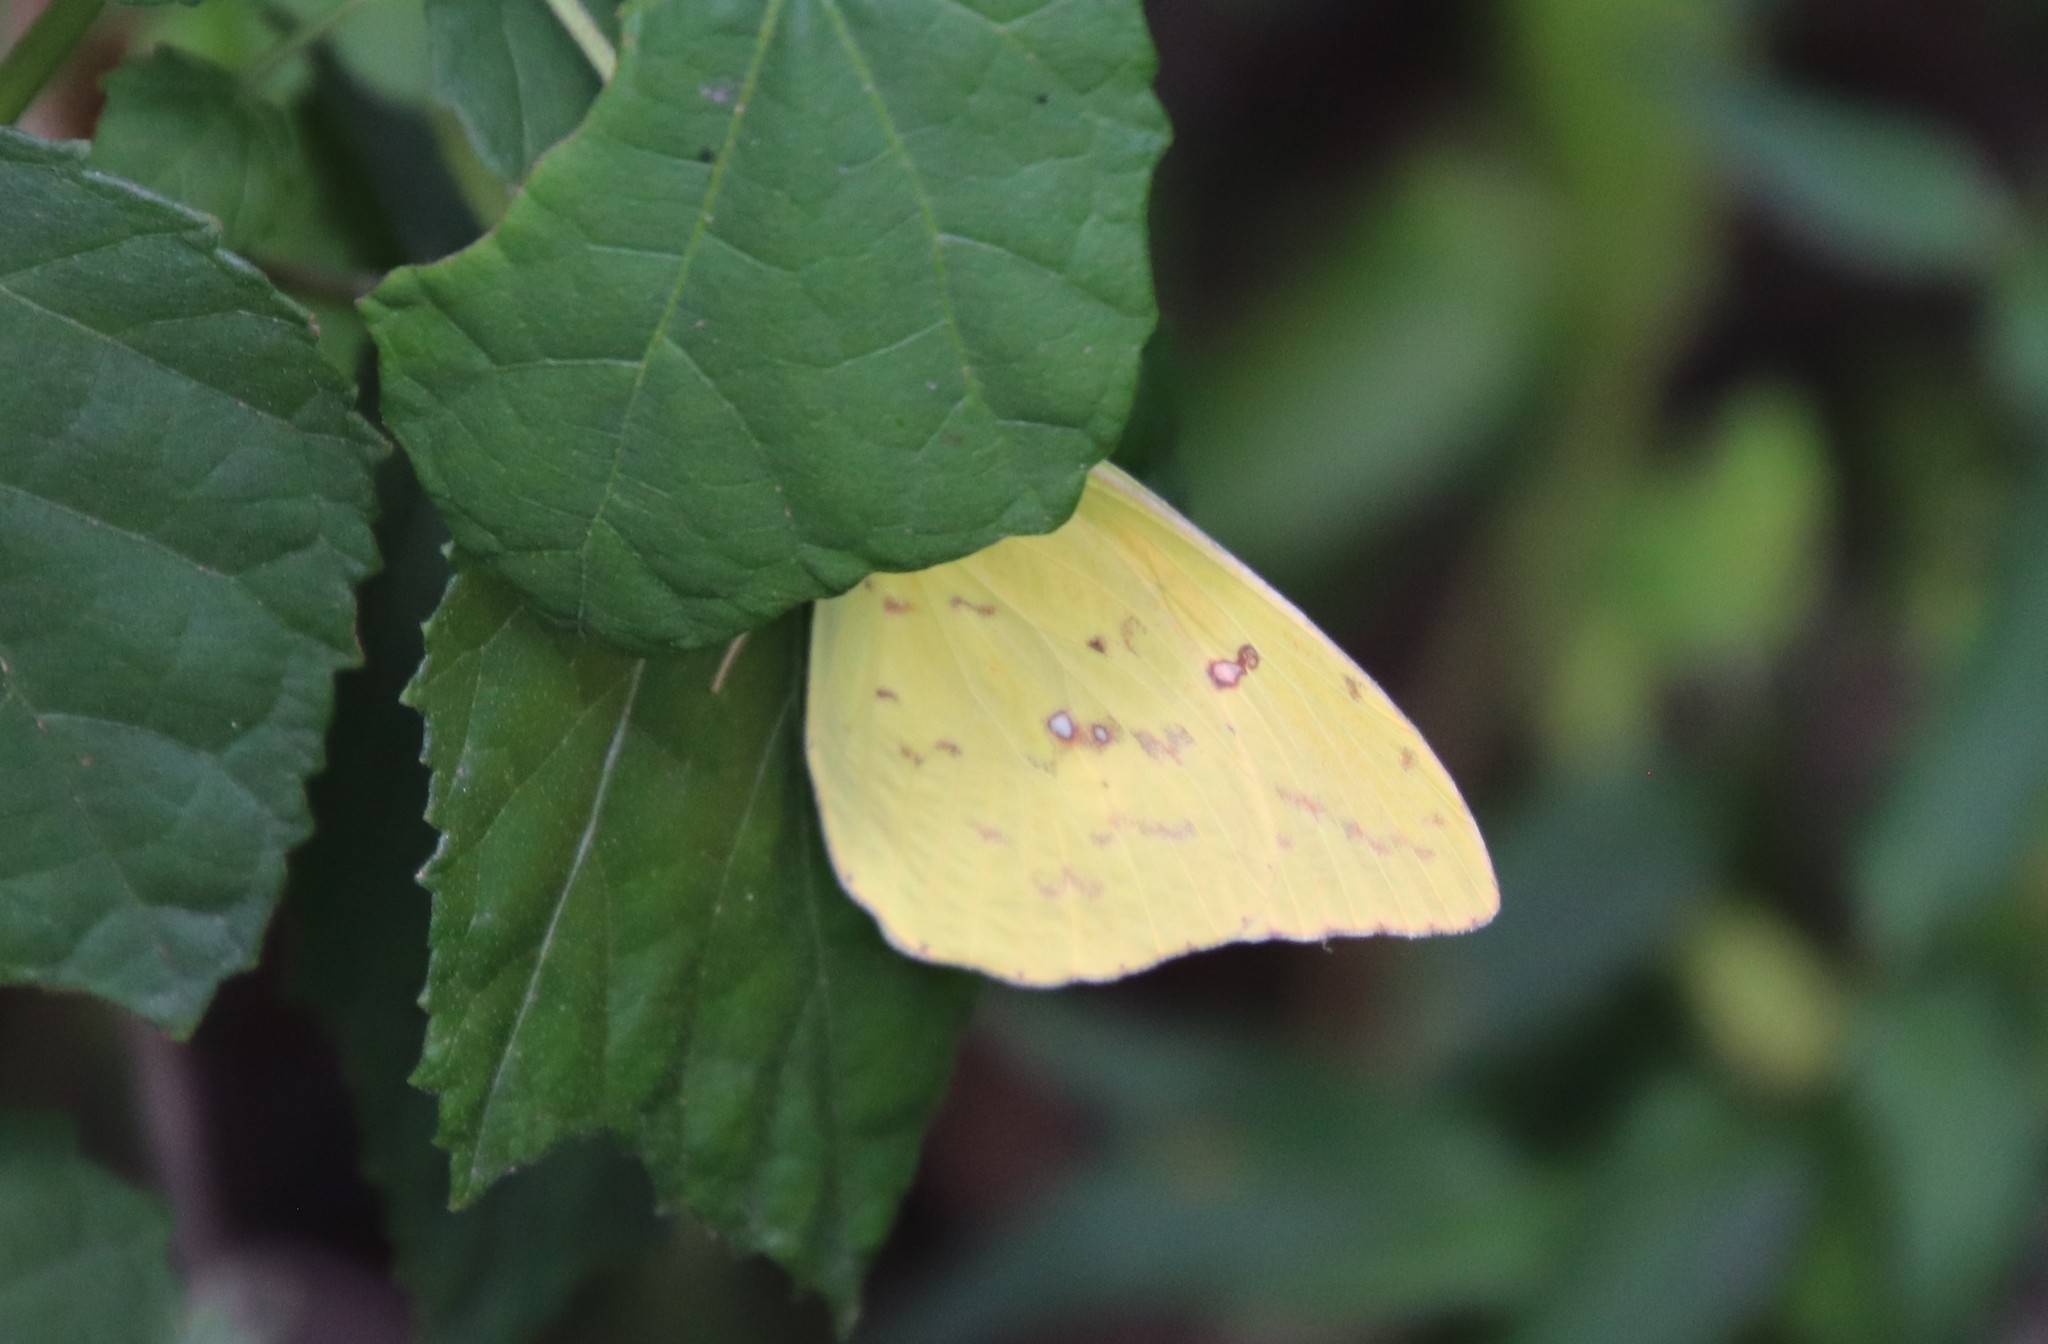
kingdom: Animalia
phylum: Arthropoda
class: Insecta
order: Lepidoptera
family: Pieridae
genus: Phoebis
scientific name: Phoebis sennae
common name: Cloudless sulphur
